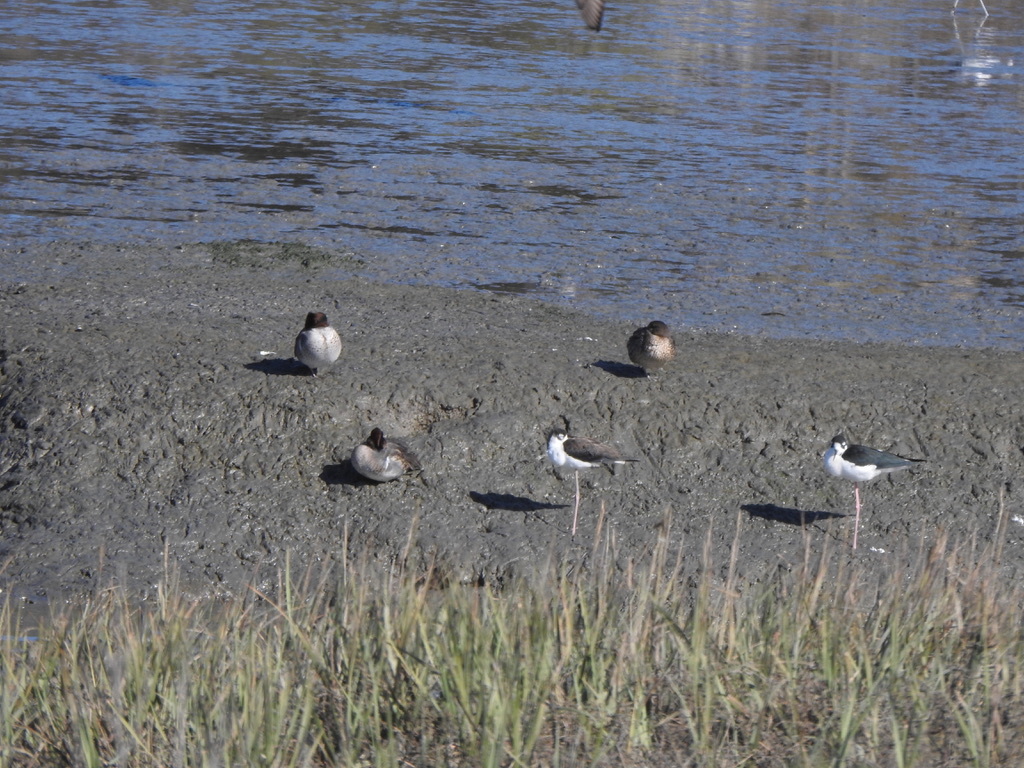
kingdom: Animalia
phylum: Chordata
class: Aves
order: Anseriformes
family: Anatidae
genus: Anas
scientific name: Anas crecca
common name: Eurasian teal
